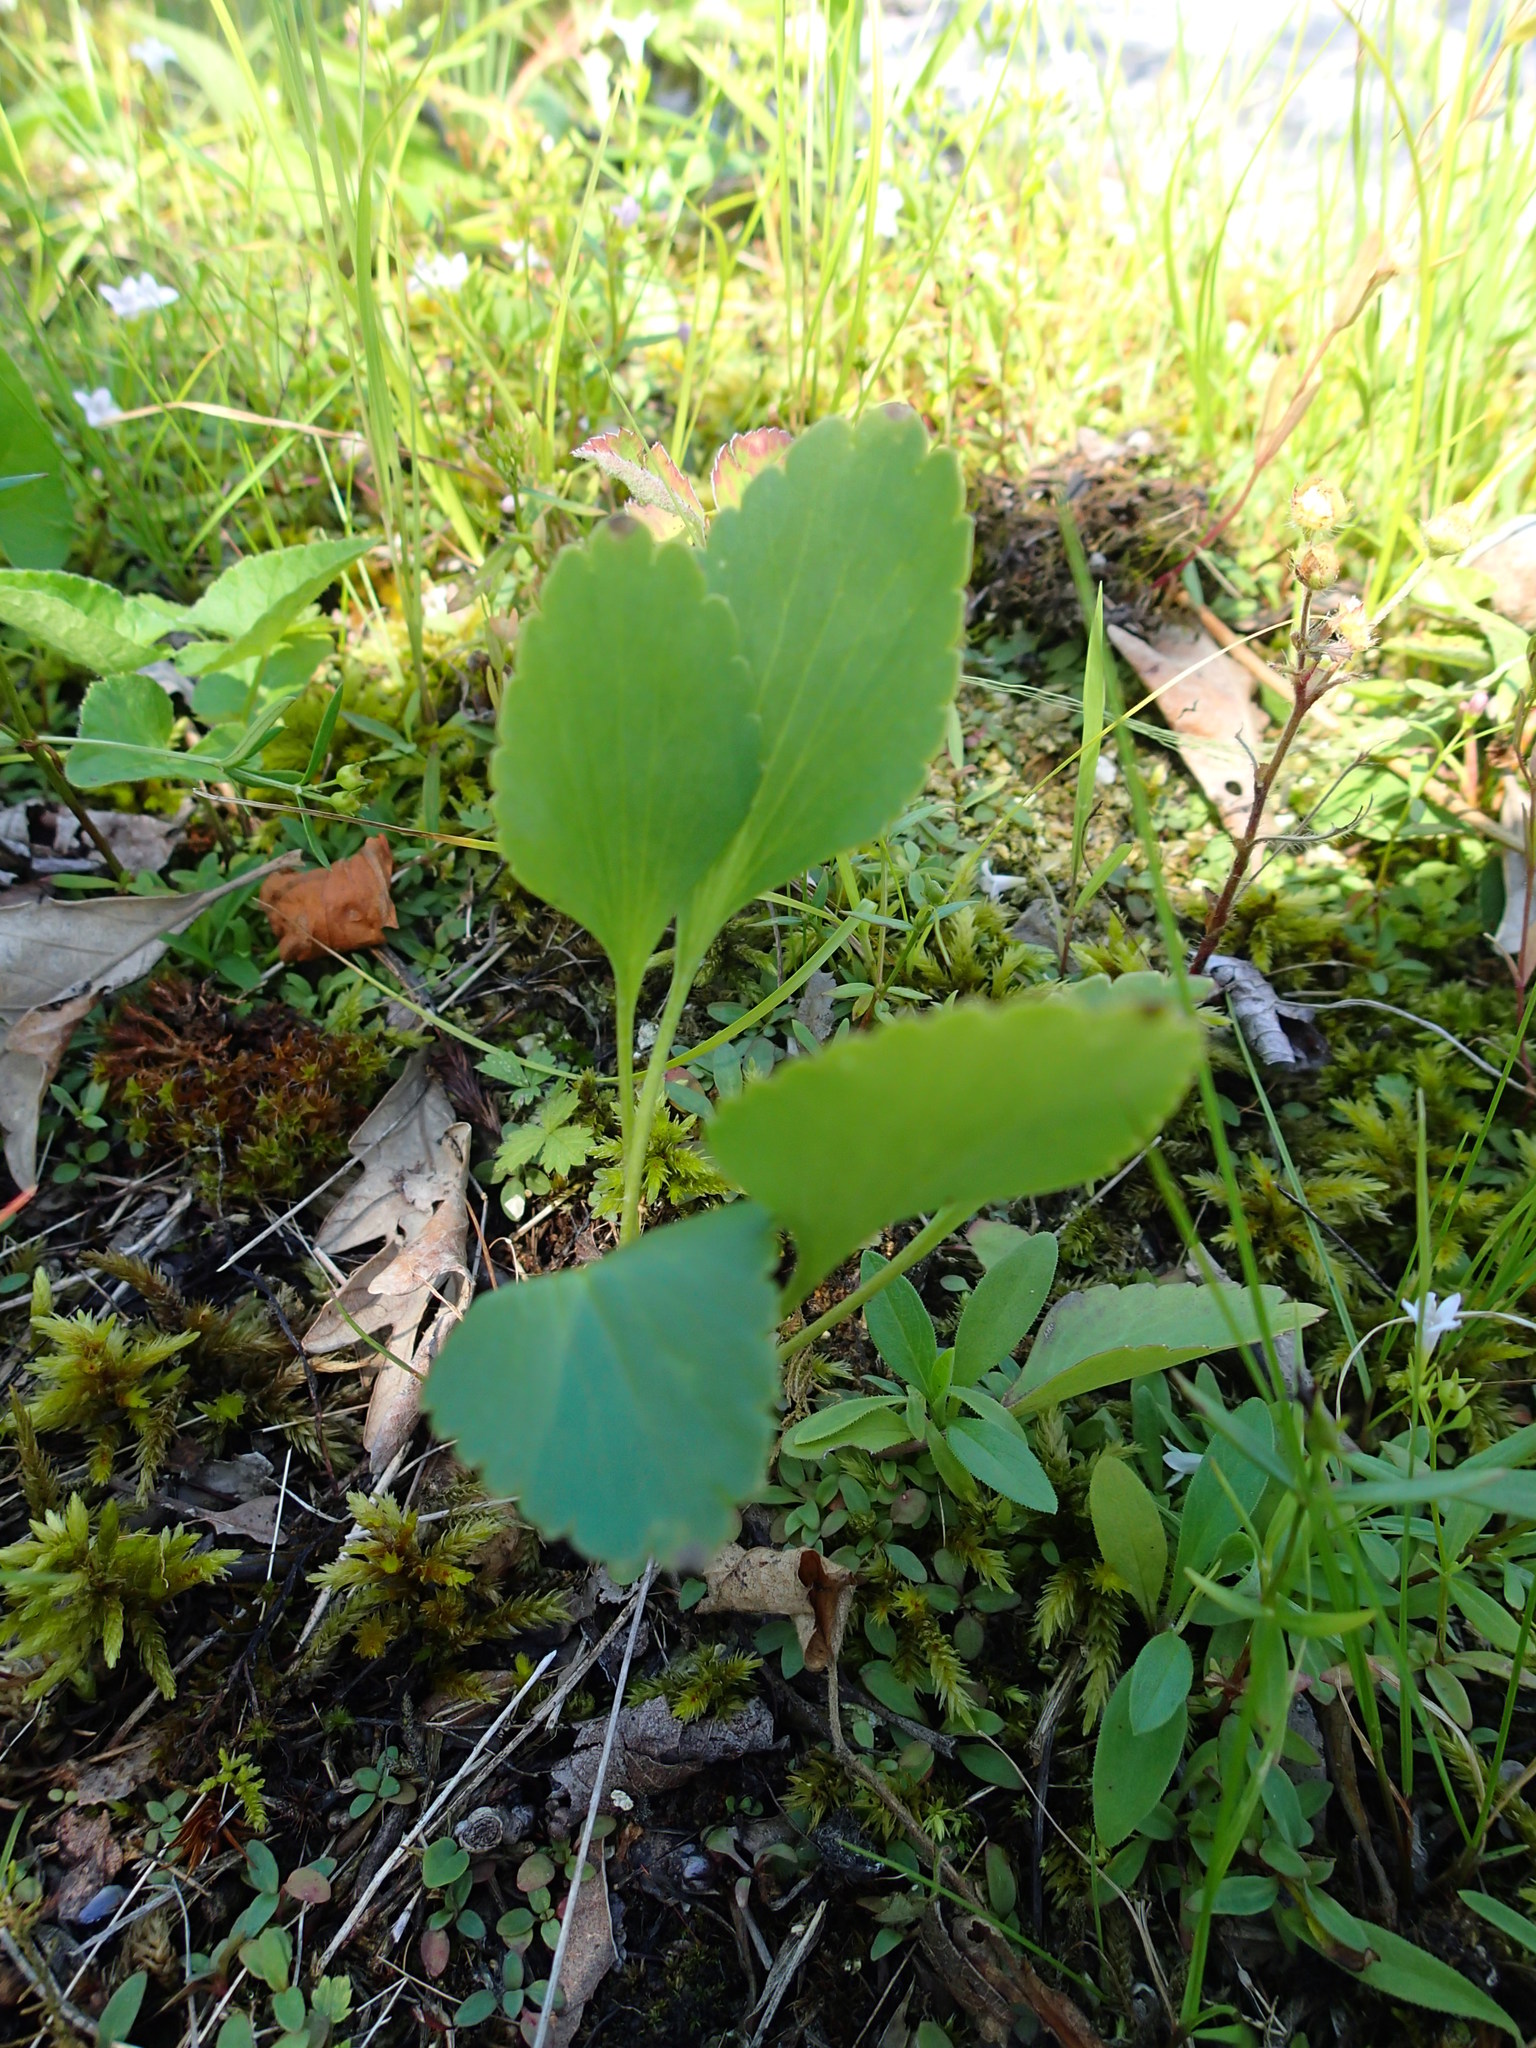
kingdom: Plantae
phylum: Tracheophyta
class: Magnoliopsida
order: Ranunculales
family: Ranunculaceae
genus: Ranunculus
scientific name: Ranunculus rhomboideus
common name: Prairie buttercup
